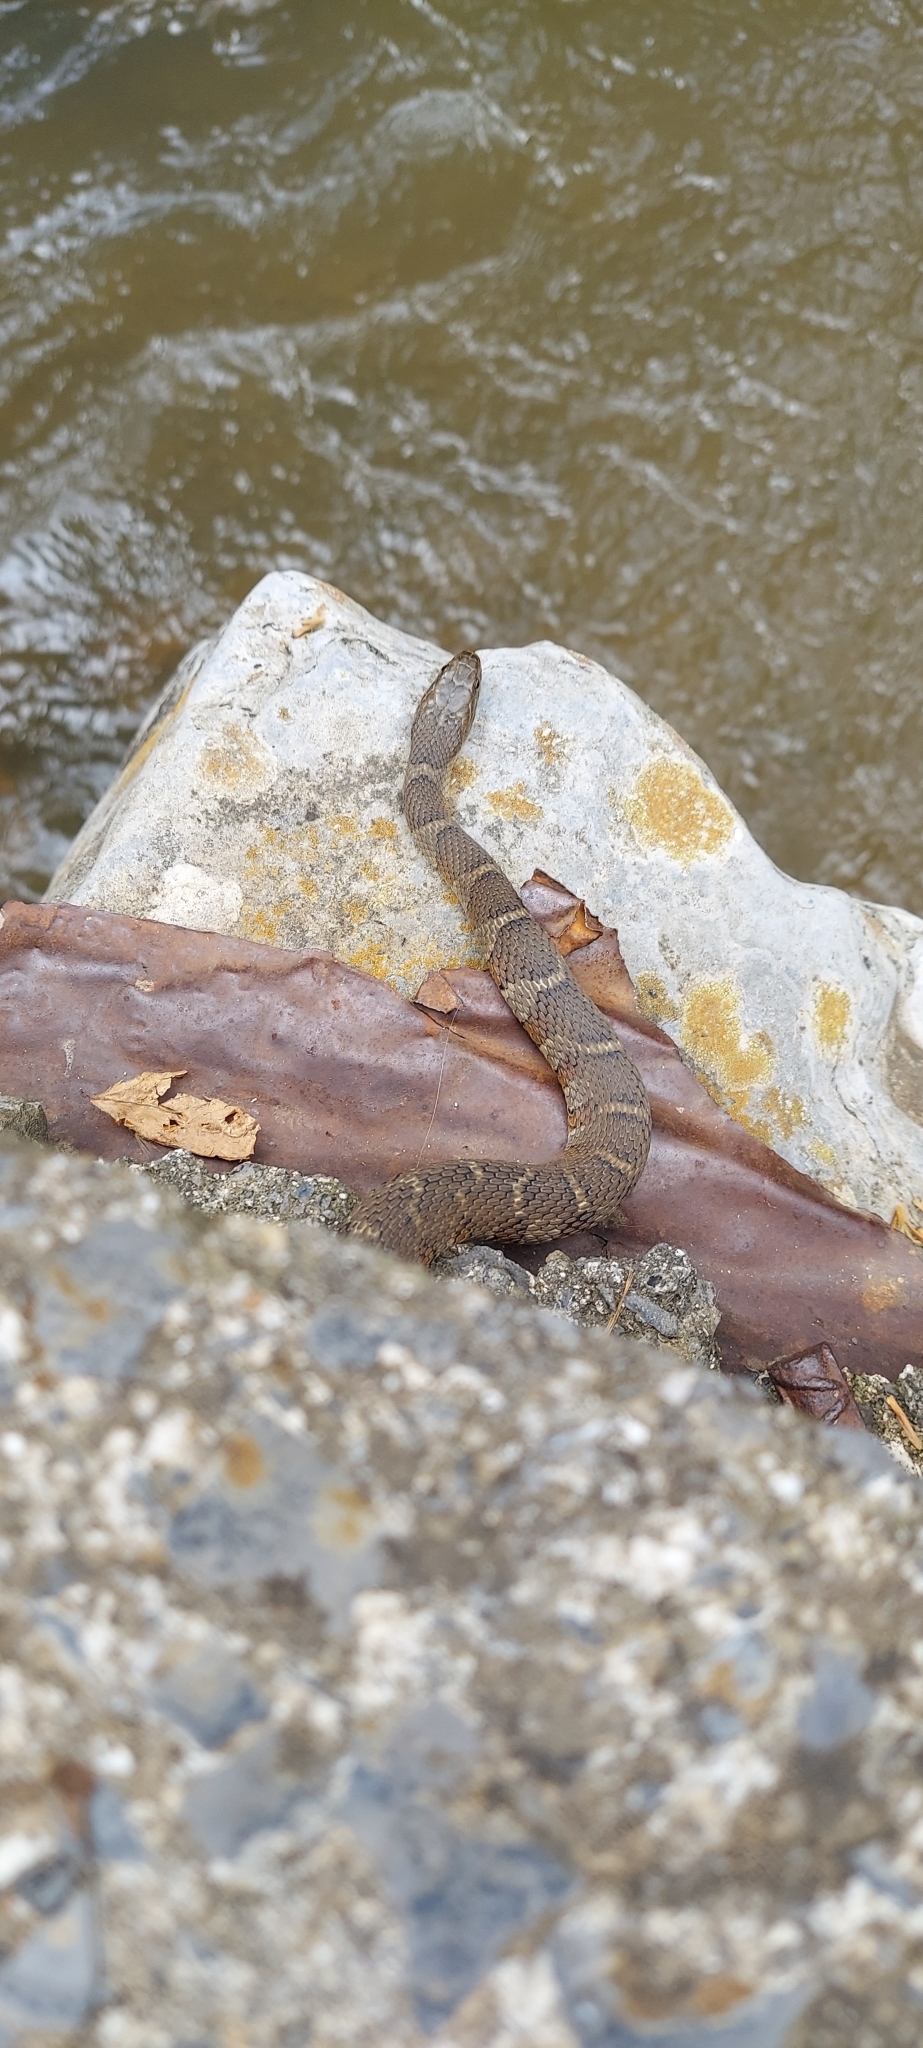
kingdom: Animalia
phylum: Chordata
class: Squamata
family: Colubridae
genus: Nerodia
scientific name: Nerodia sipedon
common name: Northern water snake
